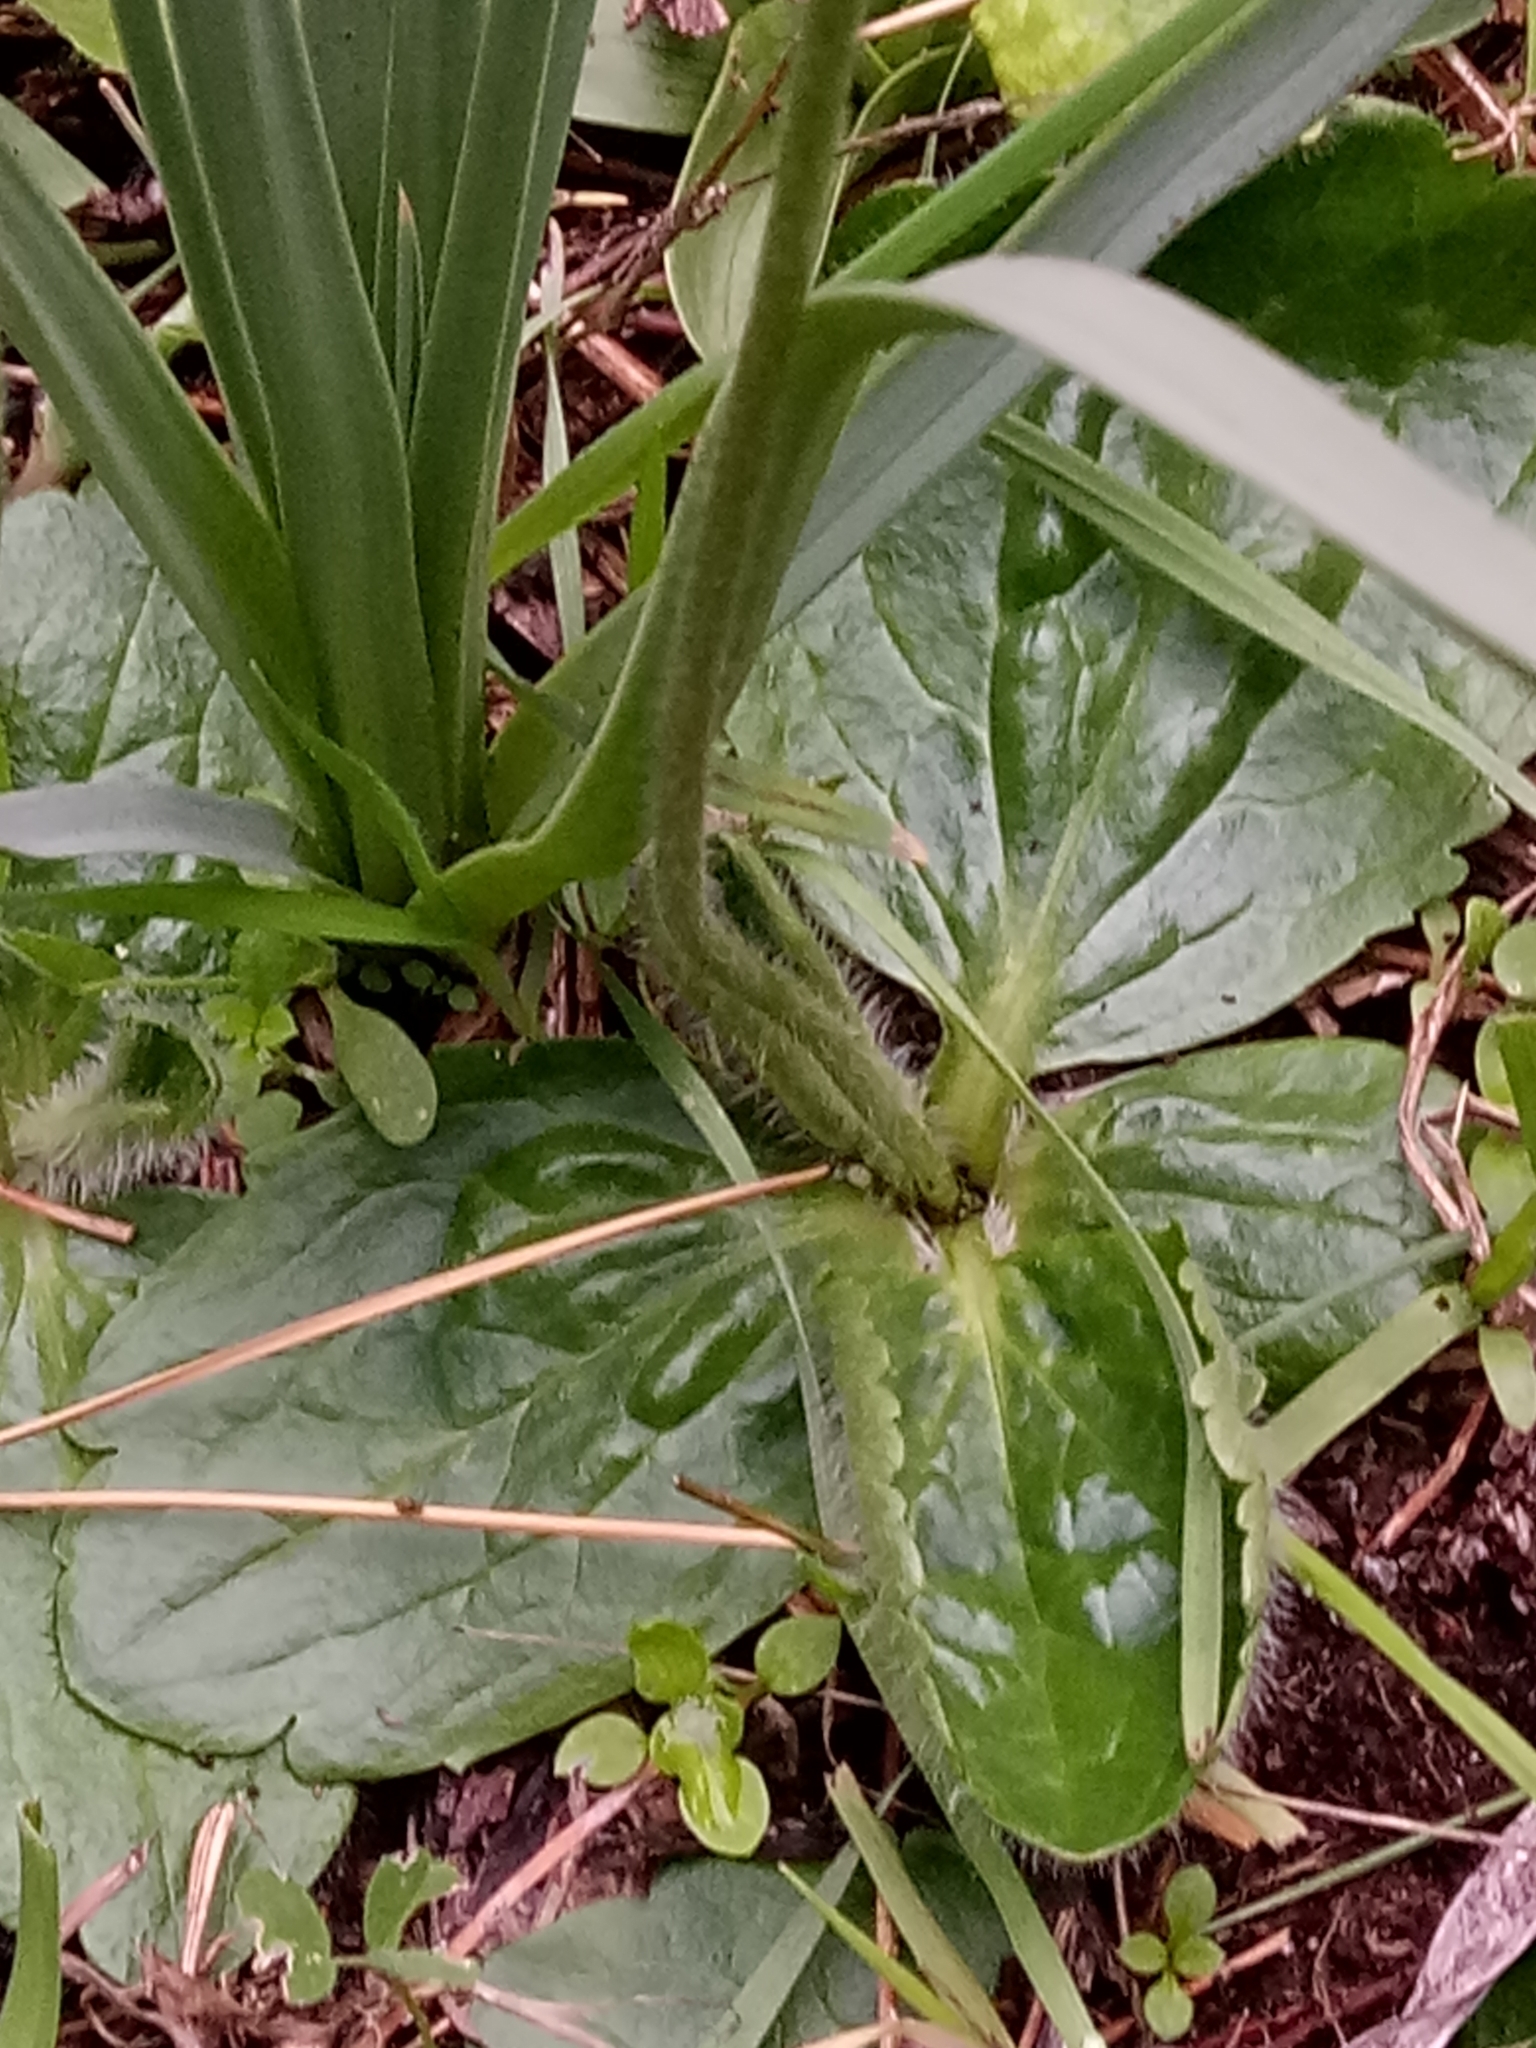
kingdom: Plantae
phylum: Tracheophyta
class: Magnoliopsida
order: Ranunculales
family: Ranunculaceae
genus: Ranunculus
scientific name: Ranunculus bullatus
